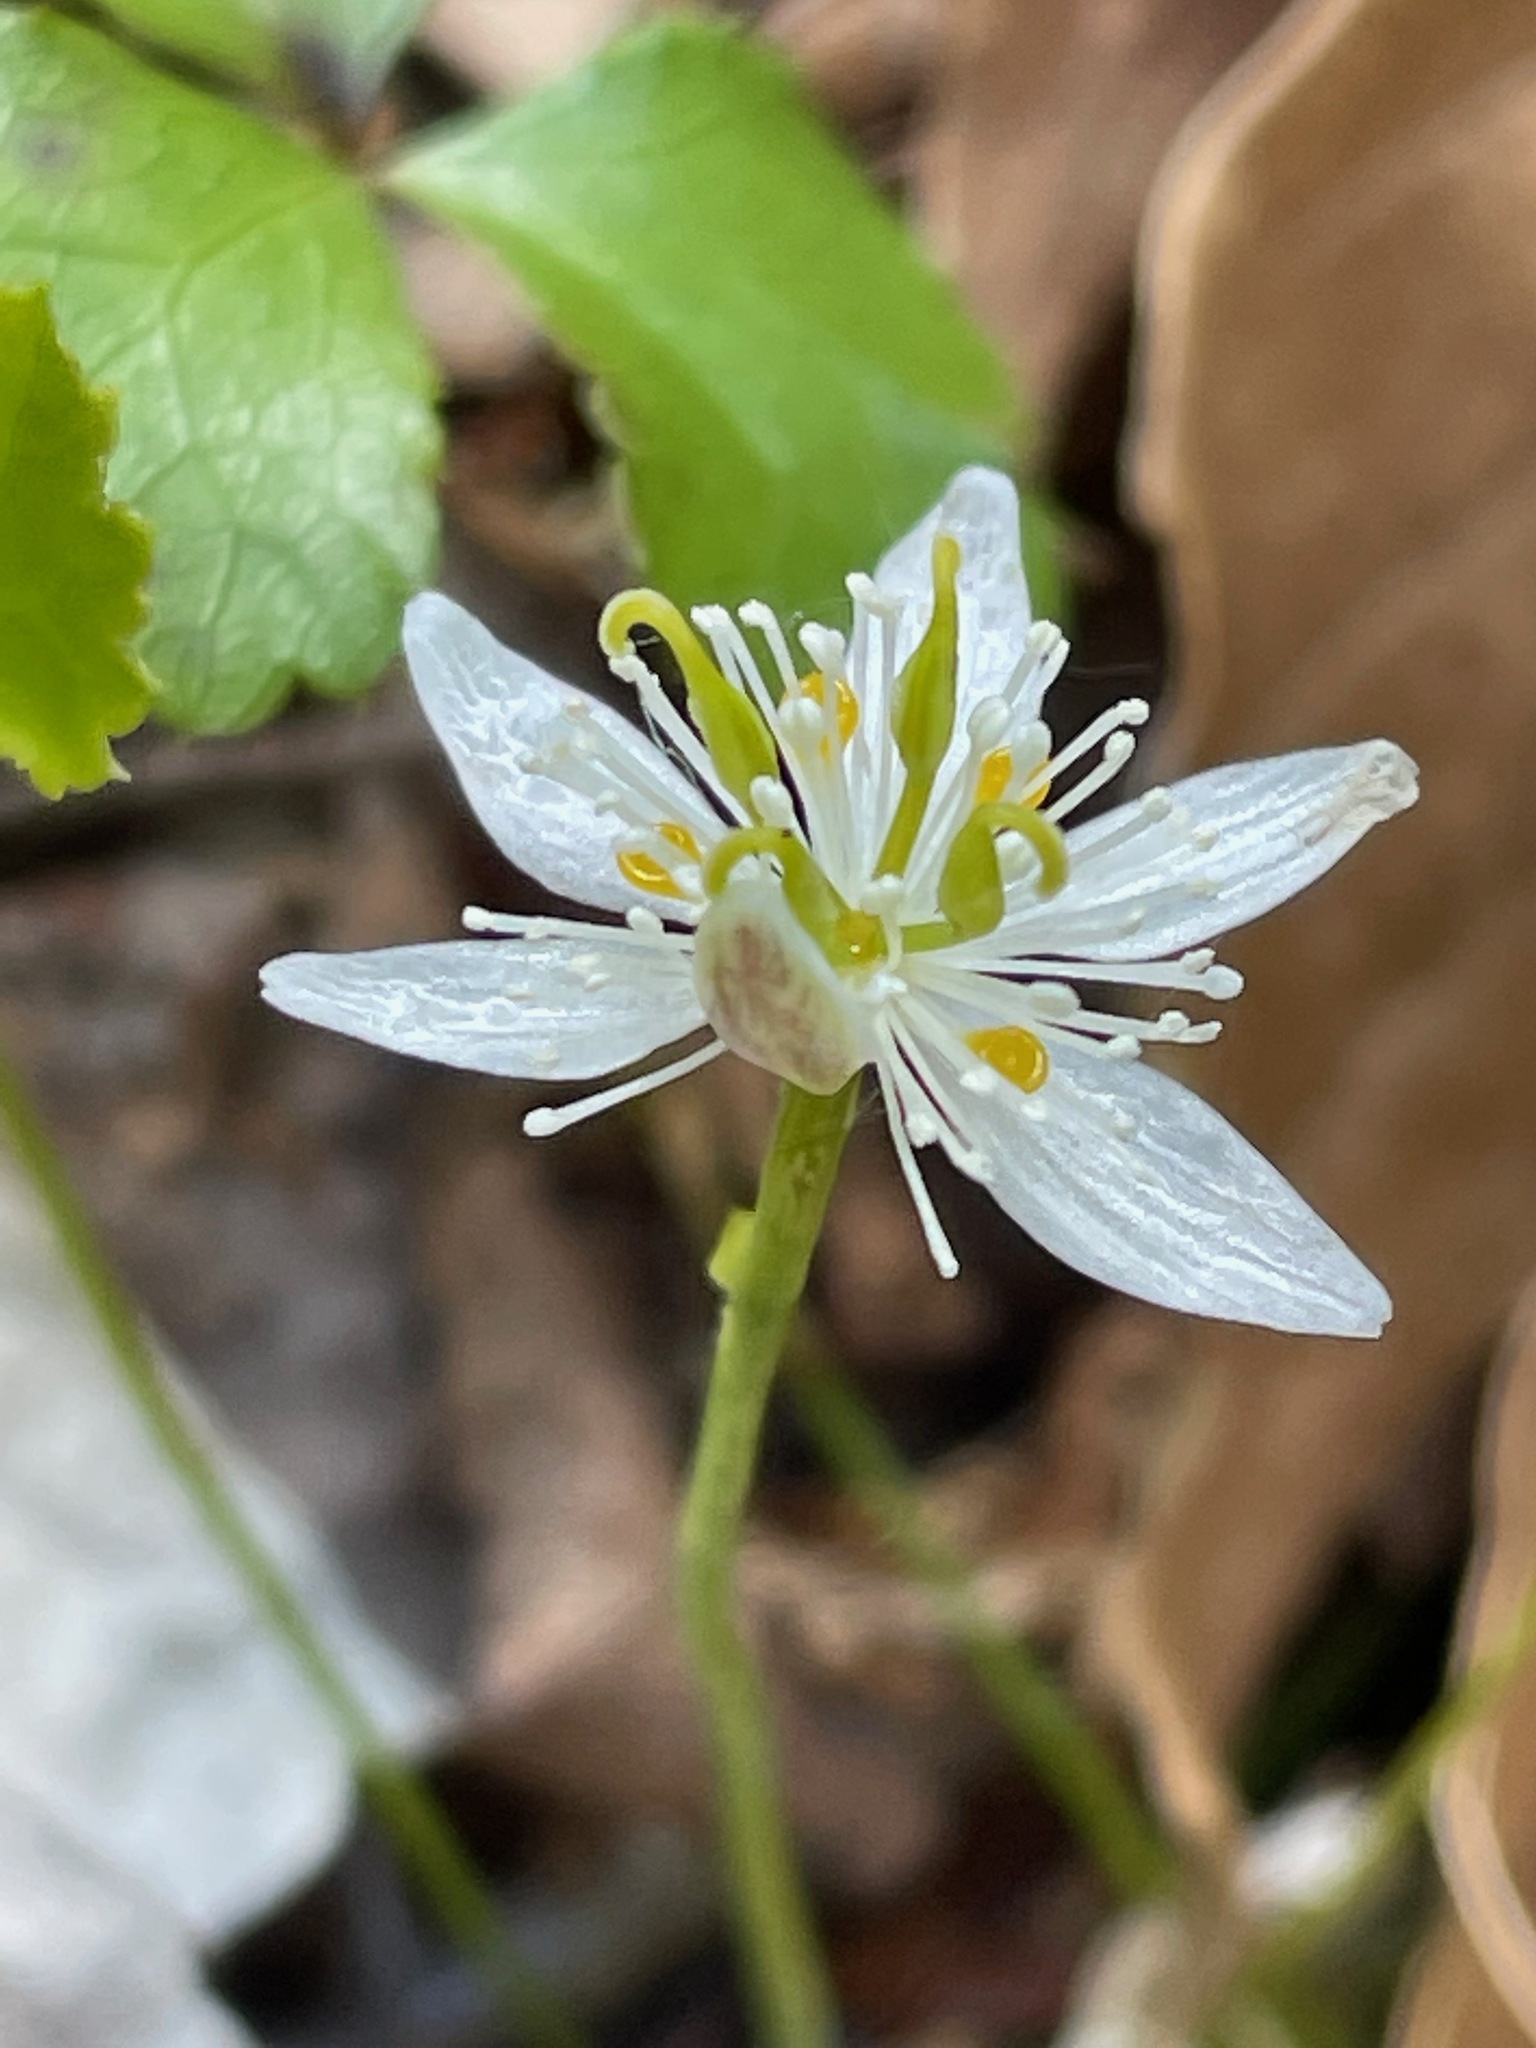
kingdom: Plantae
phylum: Tracheophyta
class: Magnoliopsida
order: Ranunculales
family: Ranunculaceae
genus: Coptis
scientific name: Coptis trifolia
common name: Canker-root
